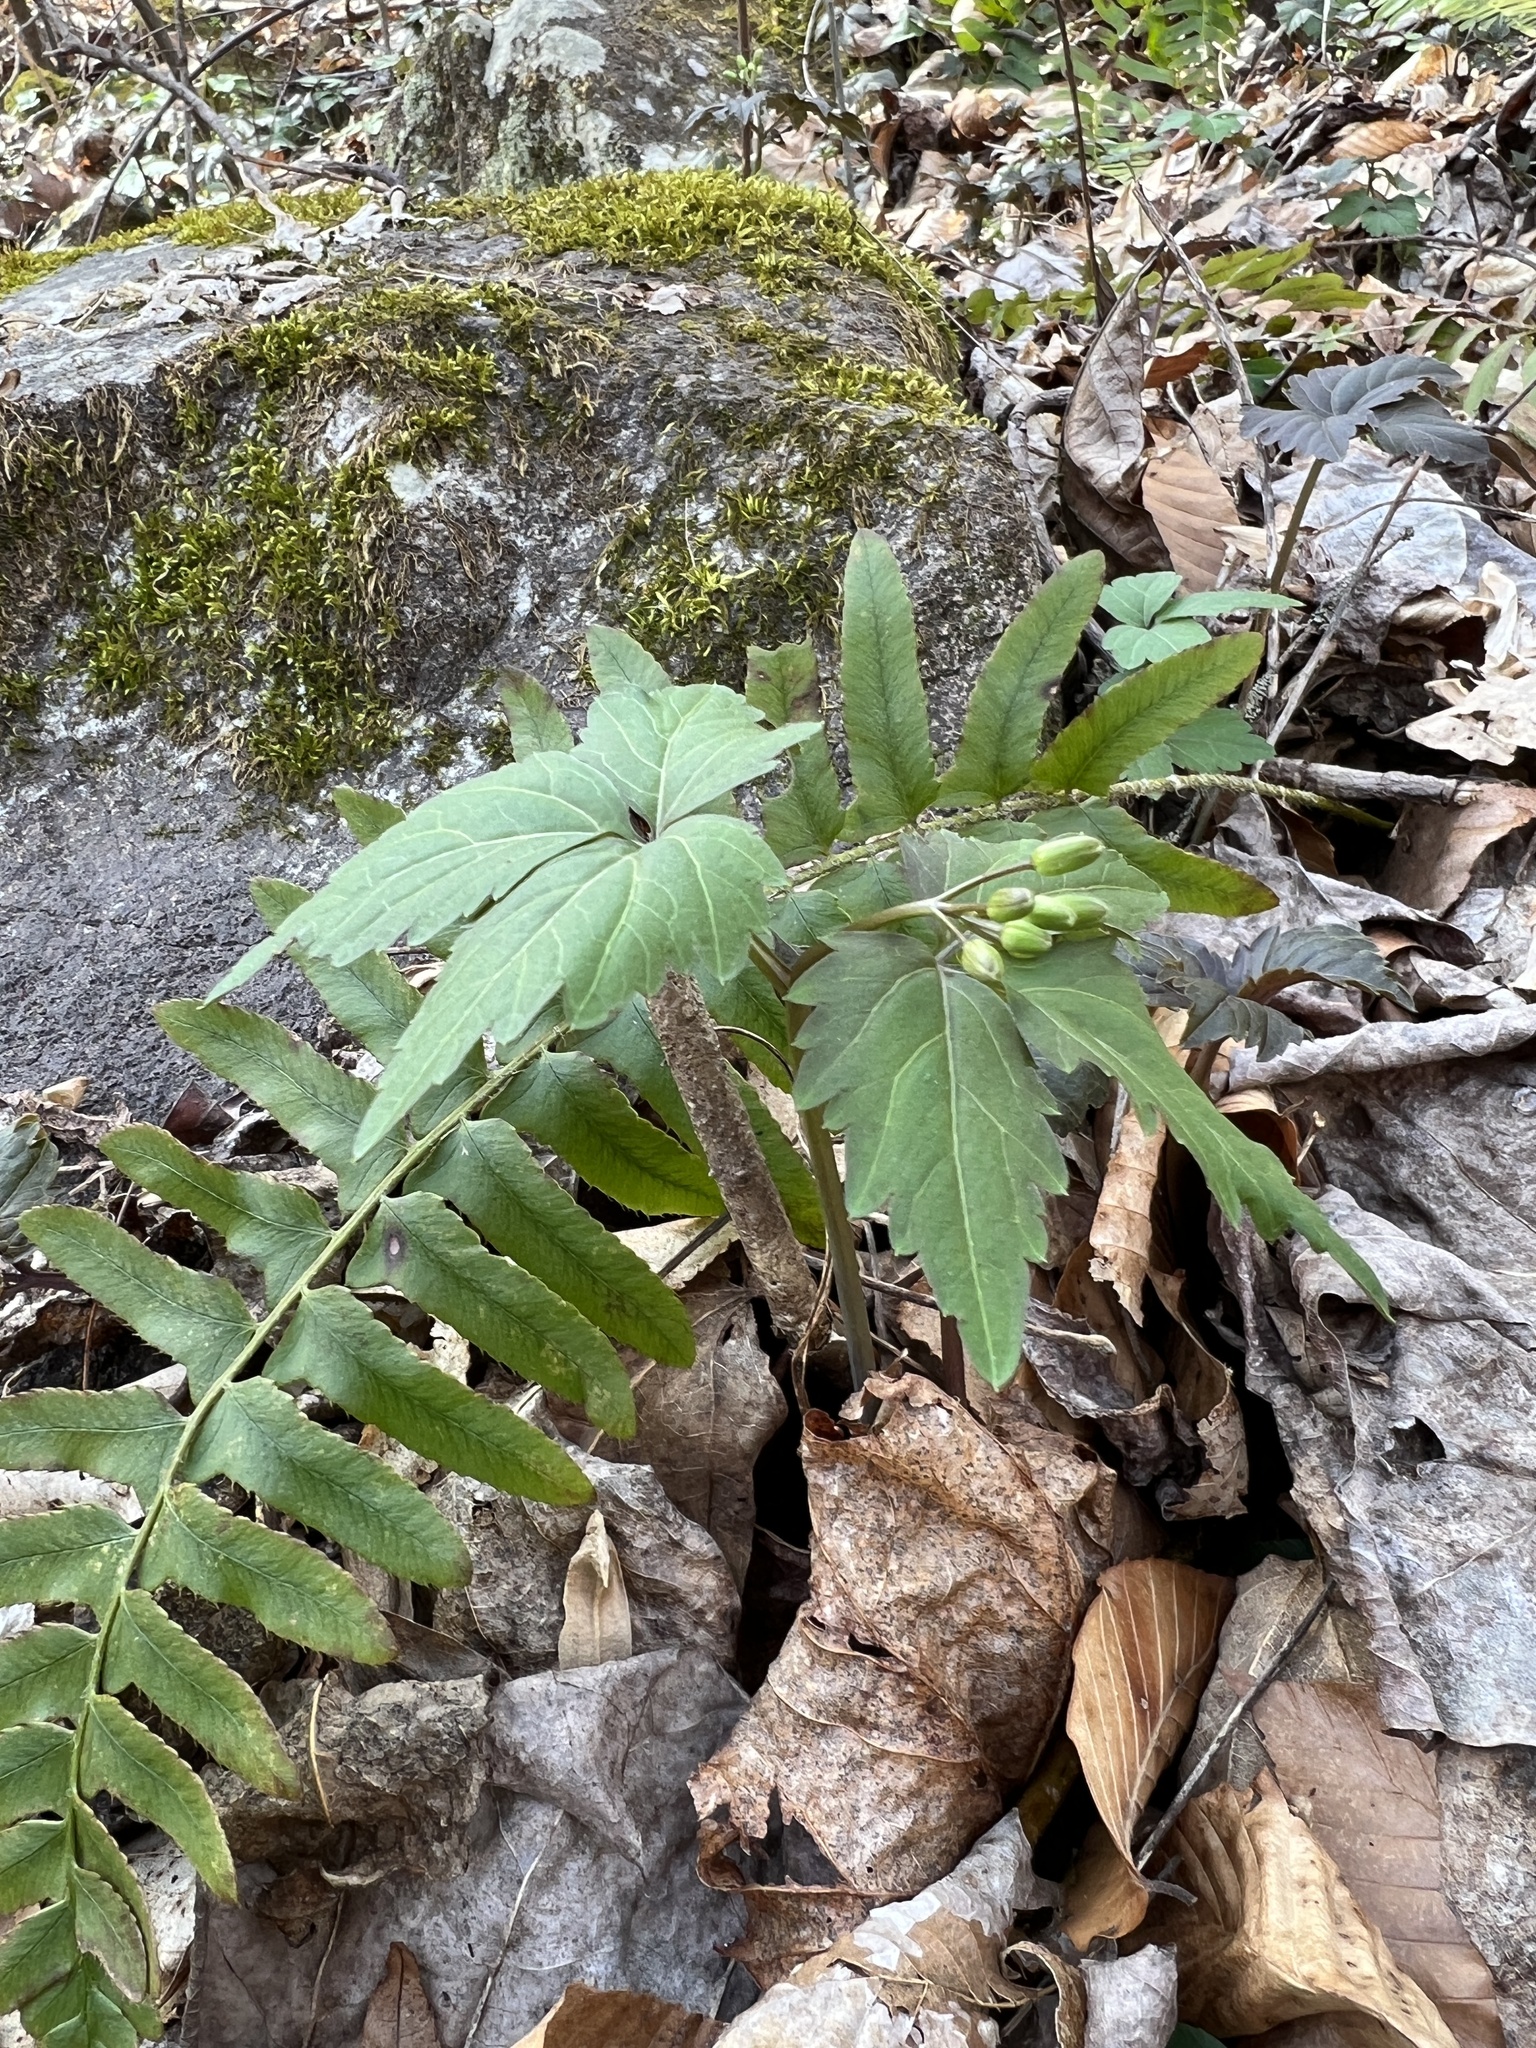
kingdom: Plantae
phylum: Tracheophyta
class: Magnoliopsida
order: Brassicales
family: Brassicaceae
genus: Cardamine
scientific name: Cardamine diphylla
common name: Broad-leaved toothwort
